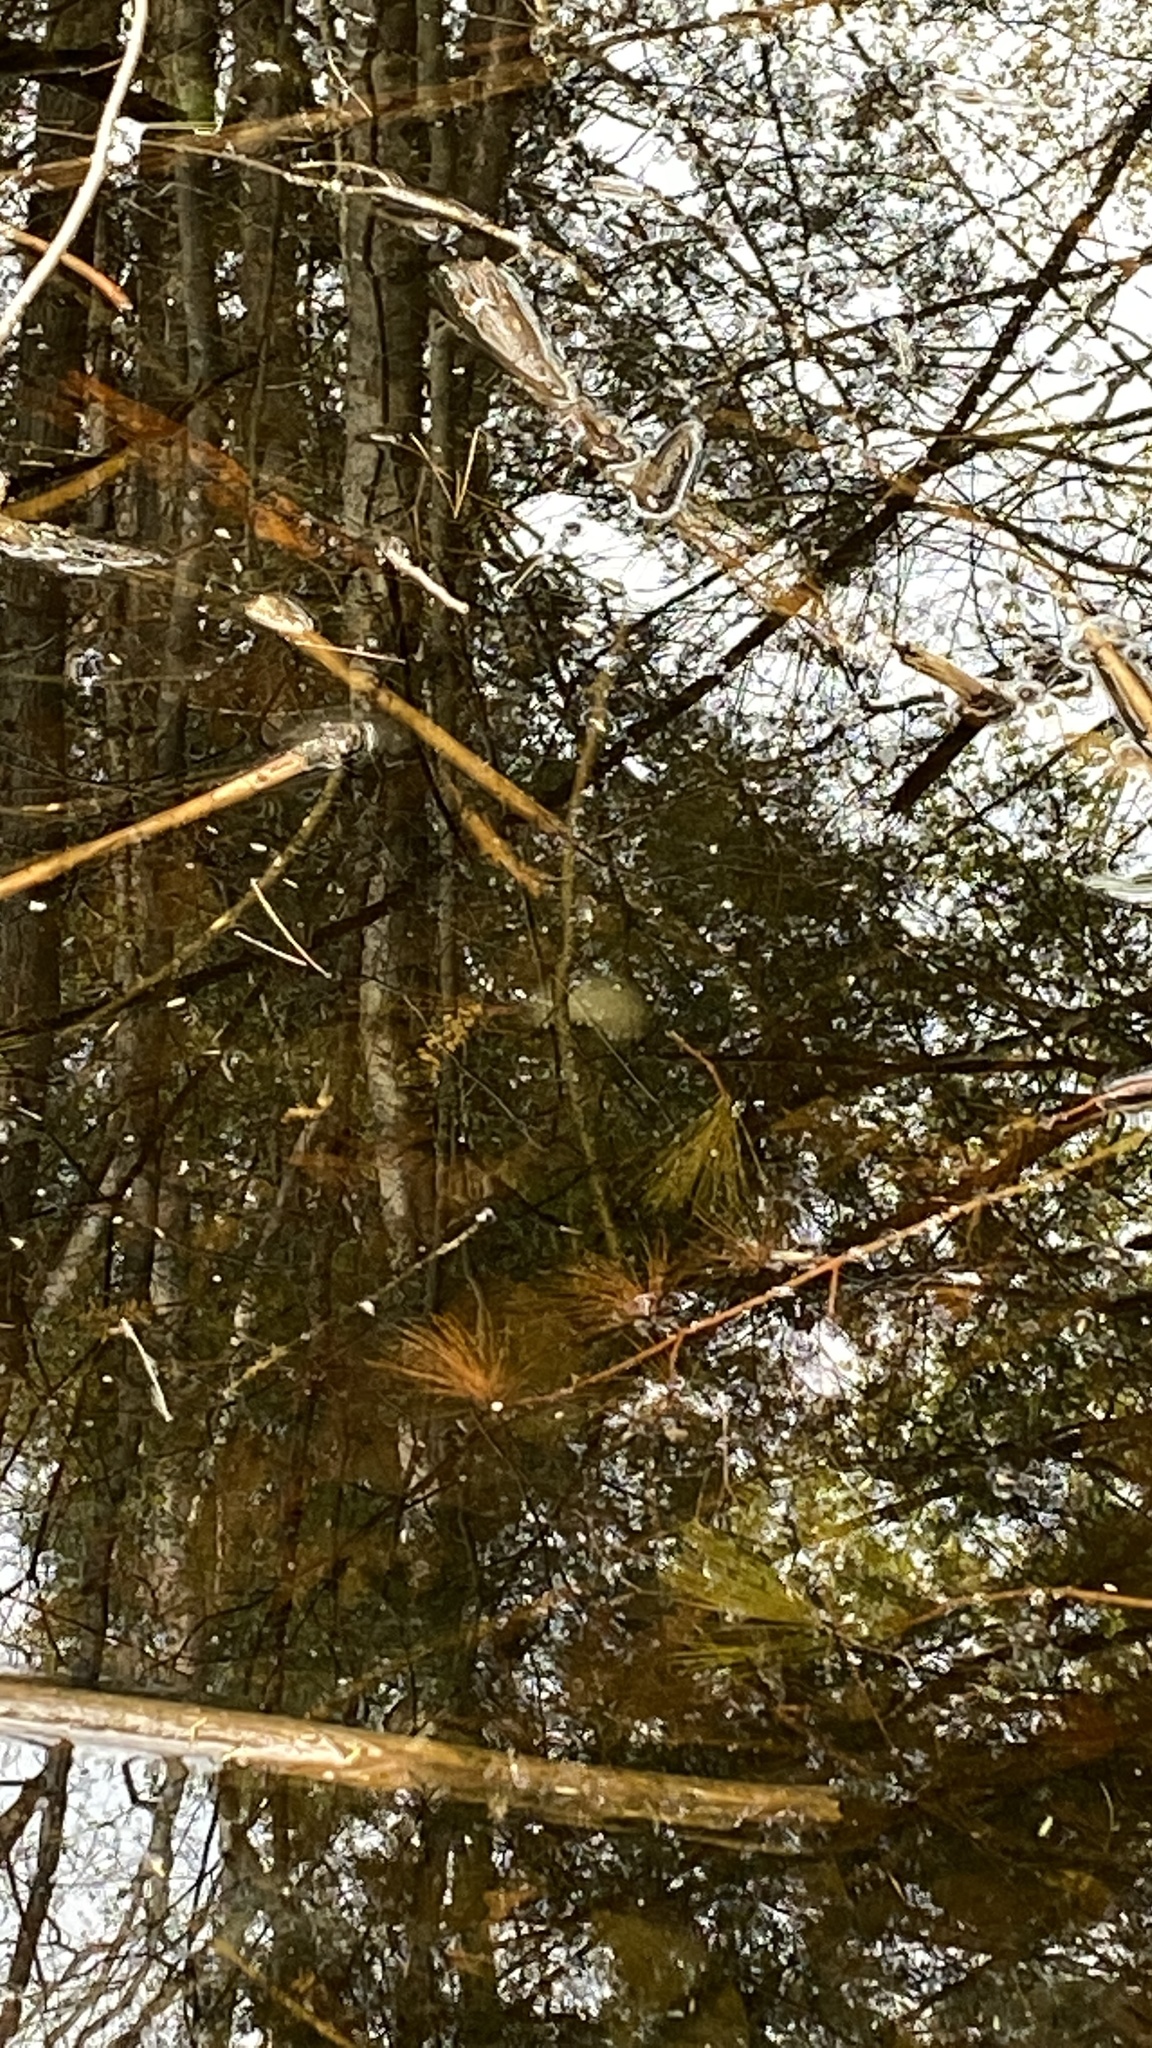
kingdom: Animalia
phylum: Chordata
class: Amphibia
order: Caudata
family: Ambystomatidae
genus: Ambystoma
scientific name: Ambystoma maculatum
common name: Spotted salamander
